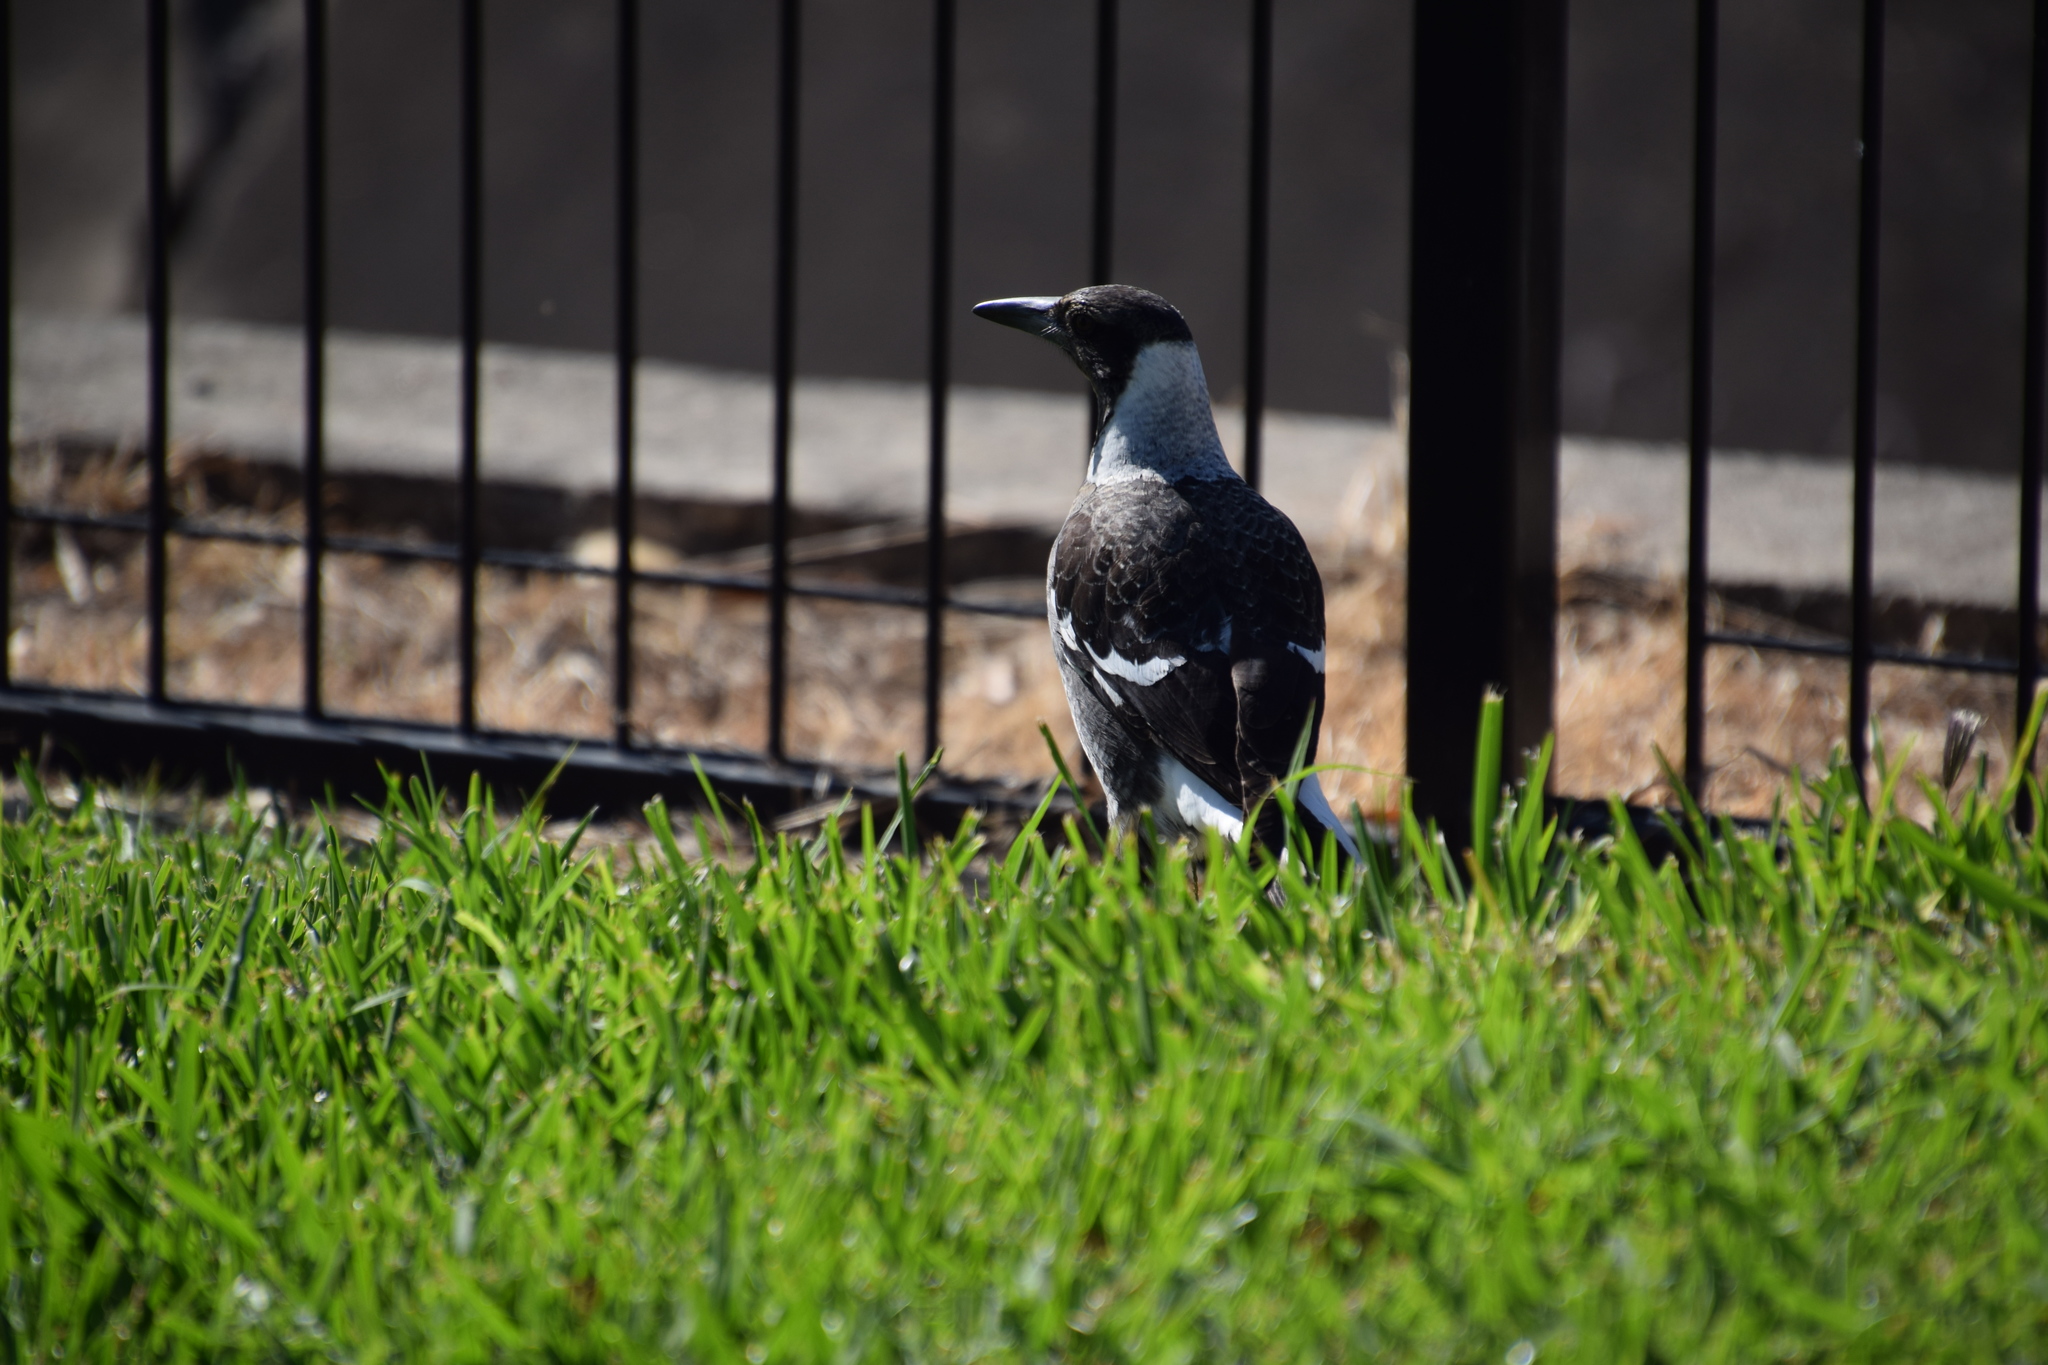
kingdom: Animalia
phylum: Chordata
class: Aves
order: Passeriformes
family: Cracticidae
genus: Gymnorhina
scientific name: Gymnorhina tibicen
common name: Australian magpie
